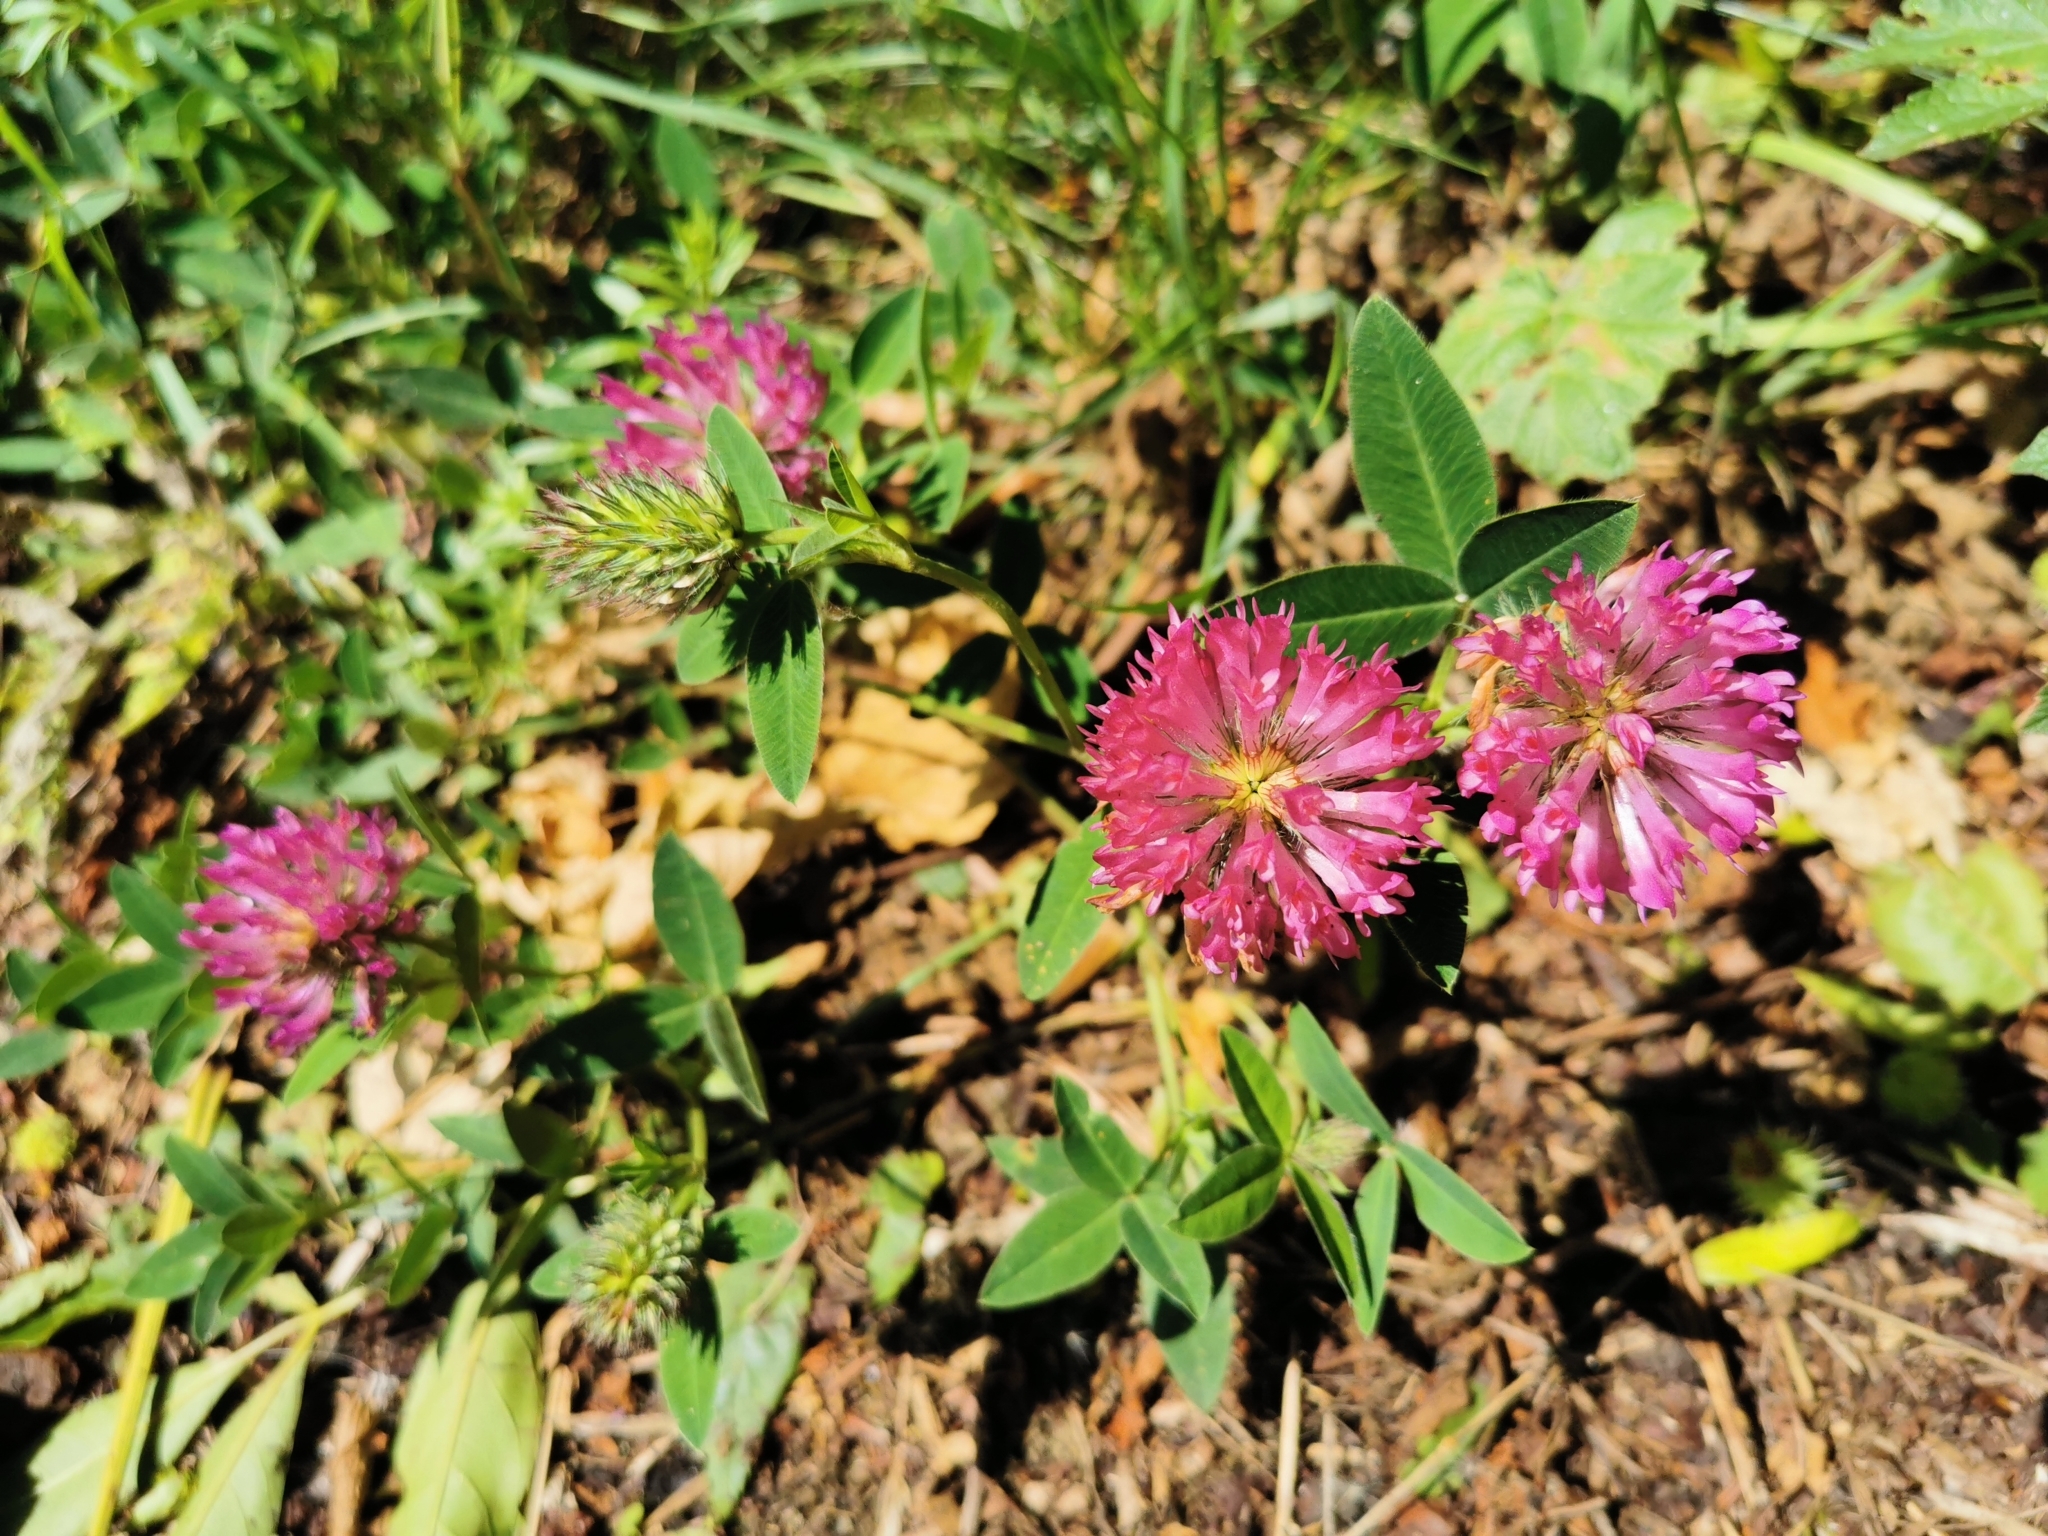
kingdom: Plantae
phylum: Tracheophyta
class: Magnoliopsida
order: Fabales
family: Fabaceae
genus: Trifolium
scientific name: Trifolium medium
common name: Zigzag clover
